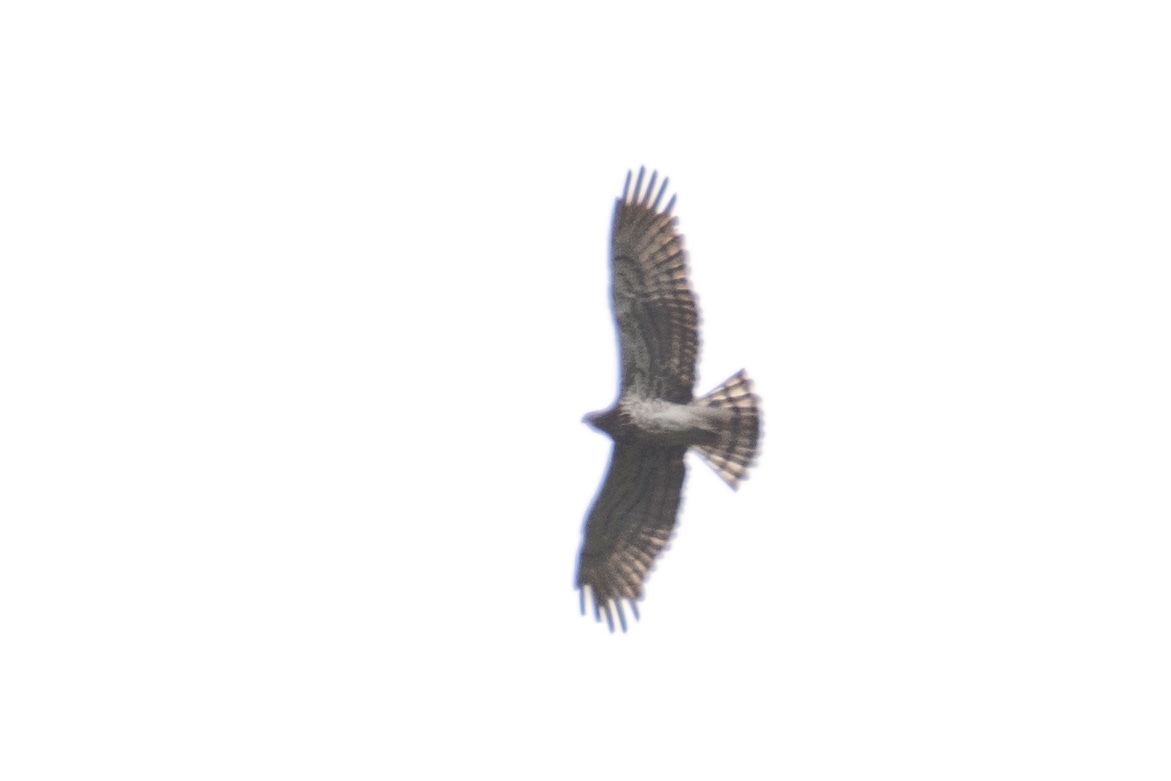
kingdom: Animalia
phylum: Chordata
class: Aves
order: Accipitriformes
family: Accipitridae
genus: Circaetus
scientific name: Circaetus gallicus
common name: Short-toed snake eagle
